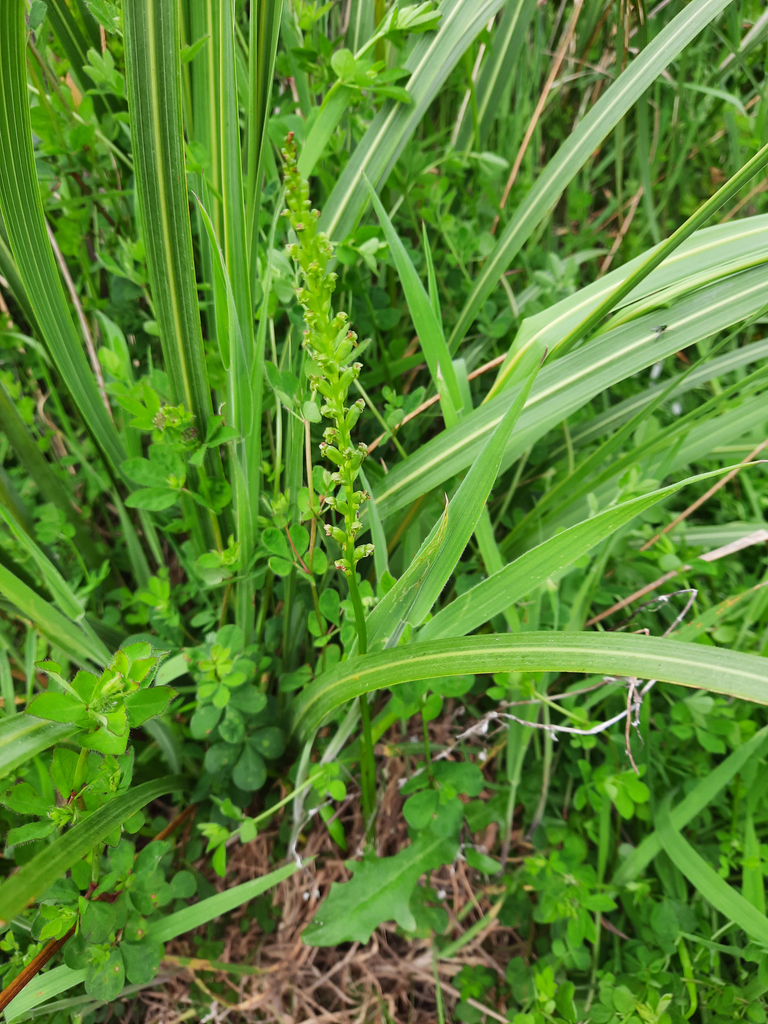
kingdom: Plantae
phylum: Tracheophyta
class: Liliopsida
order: Asparagales
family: Orchidaceae
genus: Microtis
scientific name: Microtis unifolia
